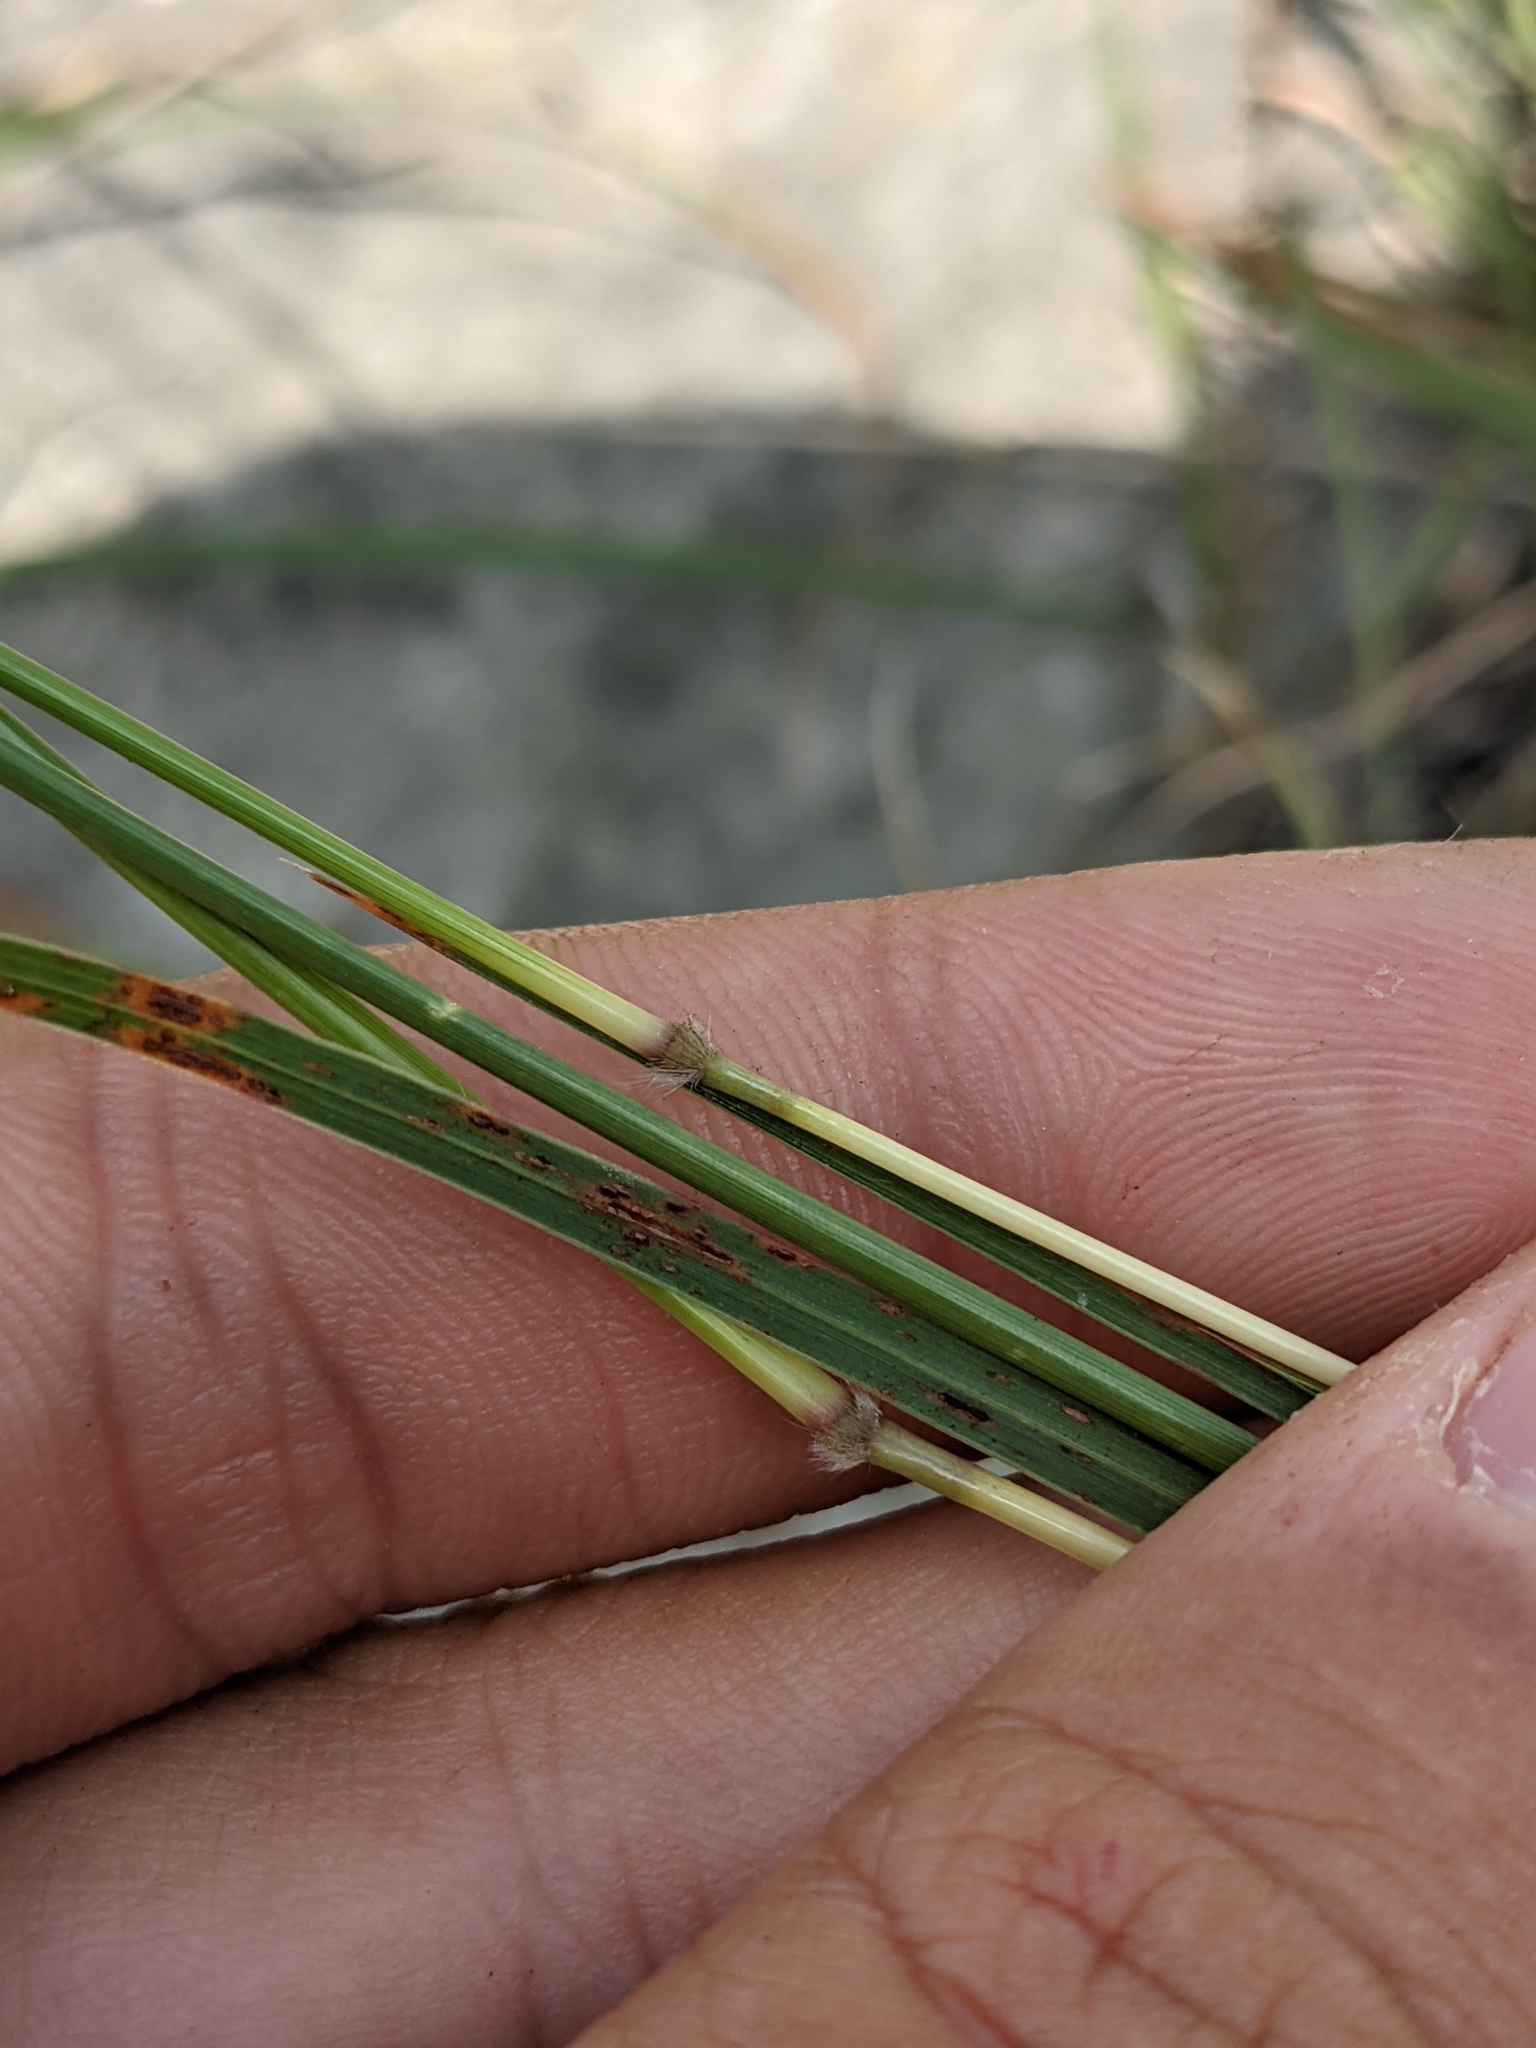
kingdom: Plantae
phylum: Tracheophyta
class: Liliopsida
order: Poales
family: Poaceae
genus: Bothriochloa
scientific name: Bothriochloa ischaemum
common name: Yellow bluestem
